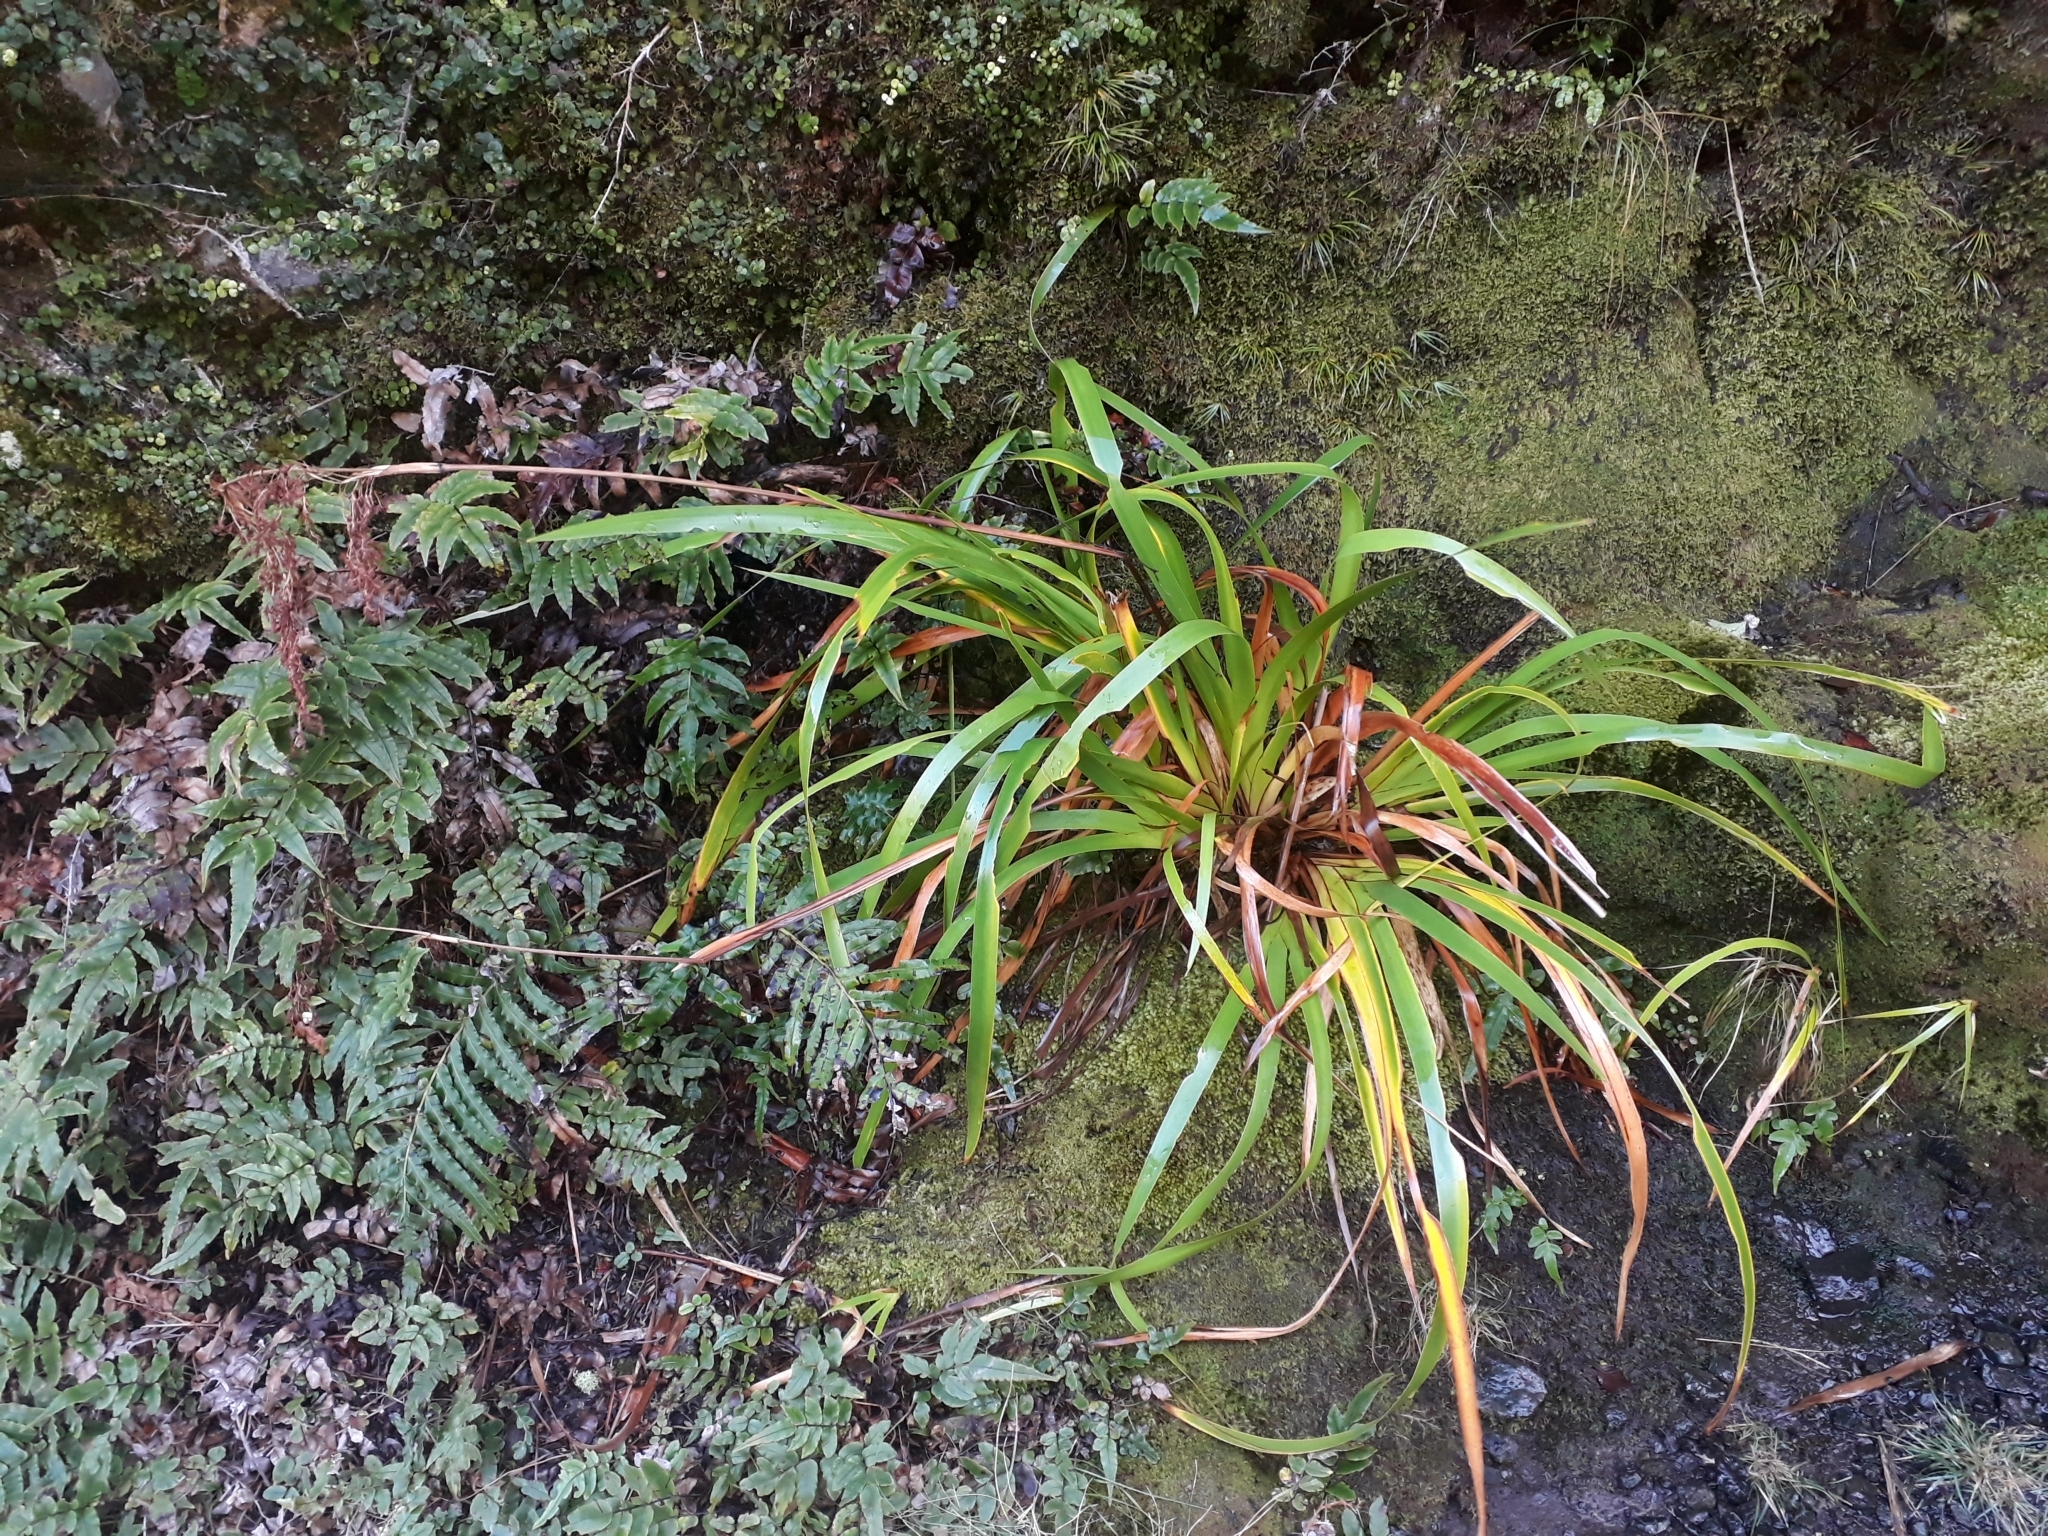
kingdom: Plantae
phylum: Tracheophyta
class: Liliopsida
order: Poales
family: Cyperaceae
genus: Machaerina
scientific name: Machaerina sinclairii
